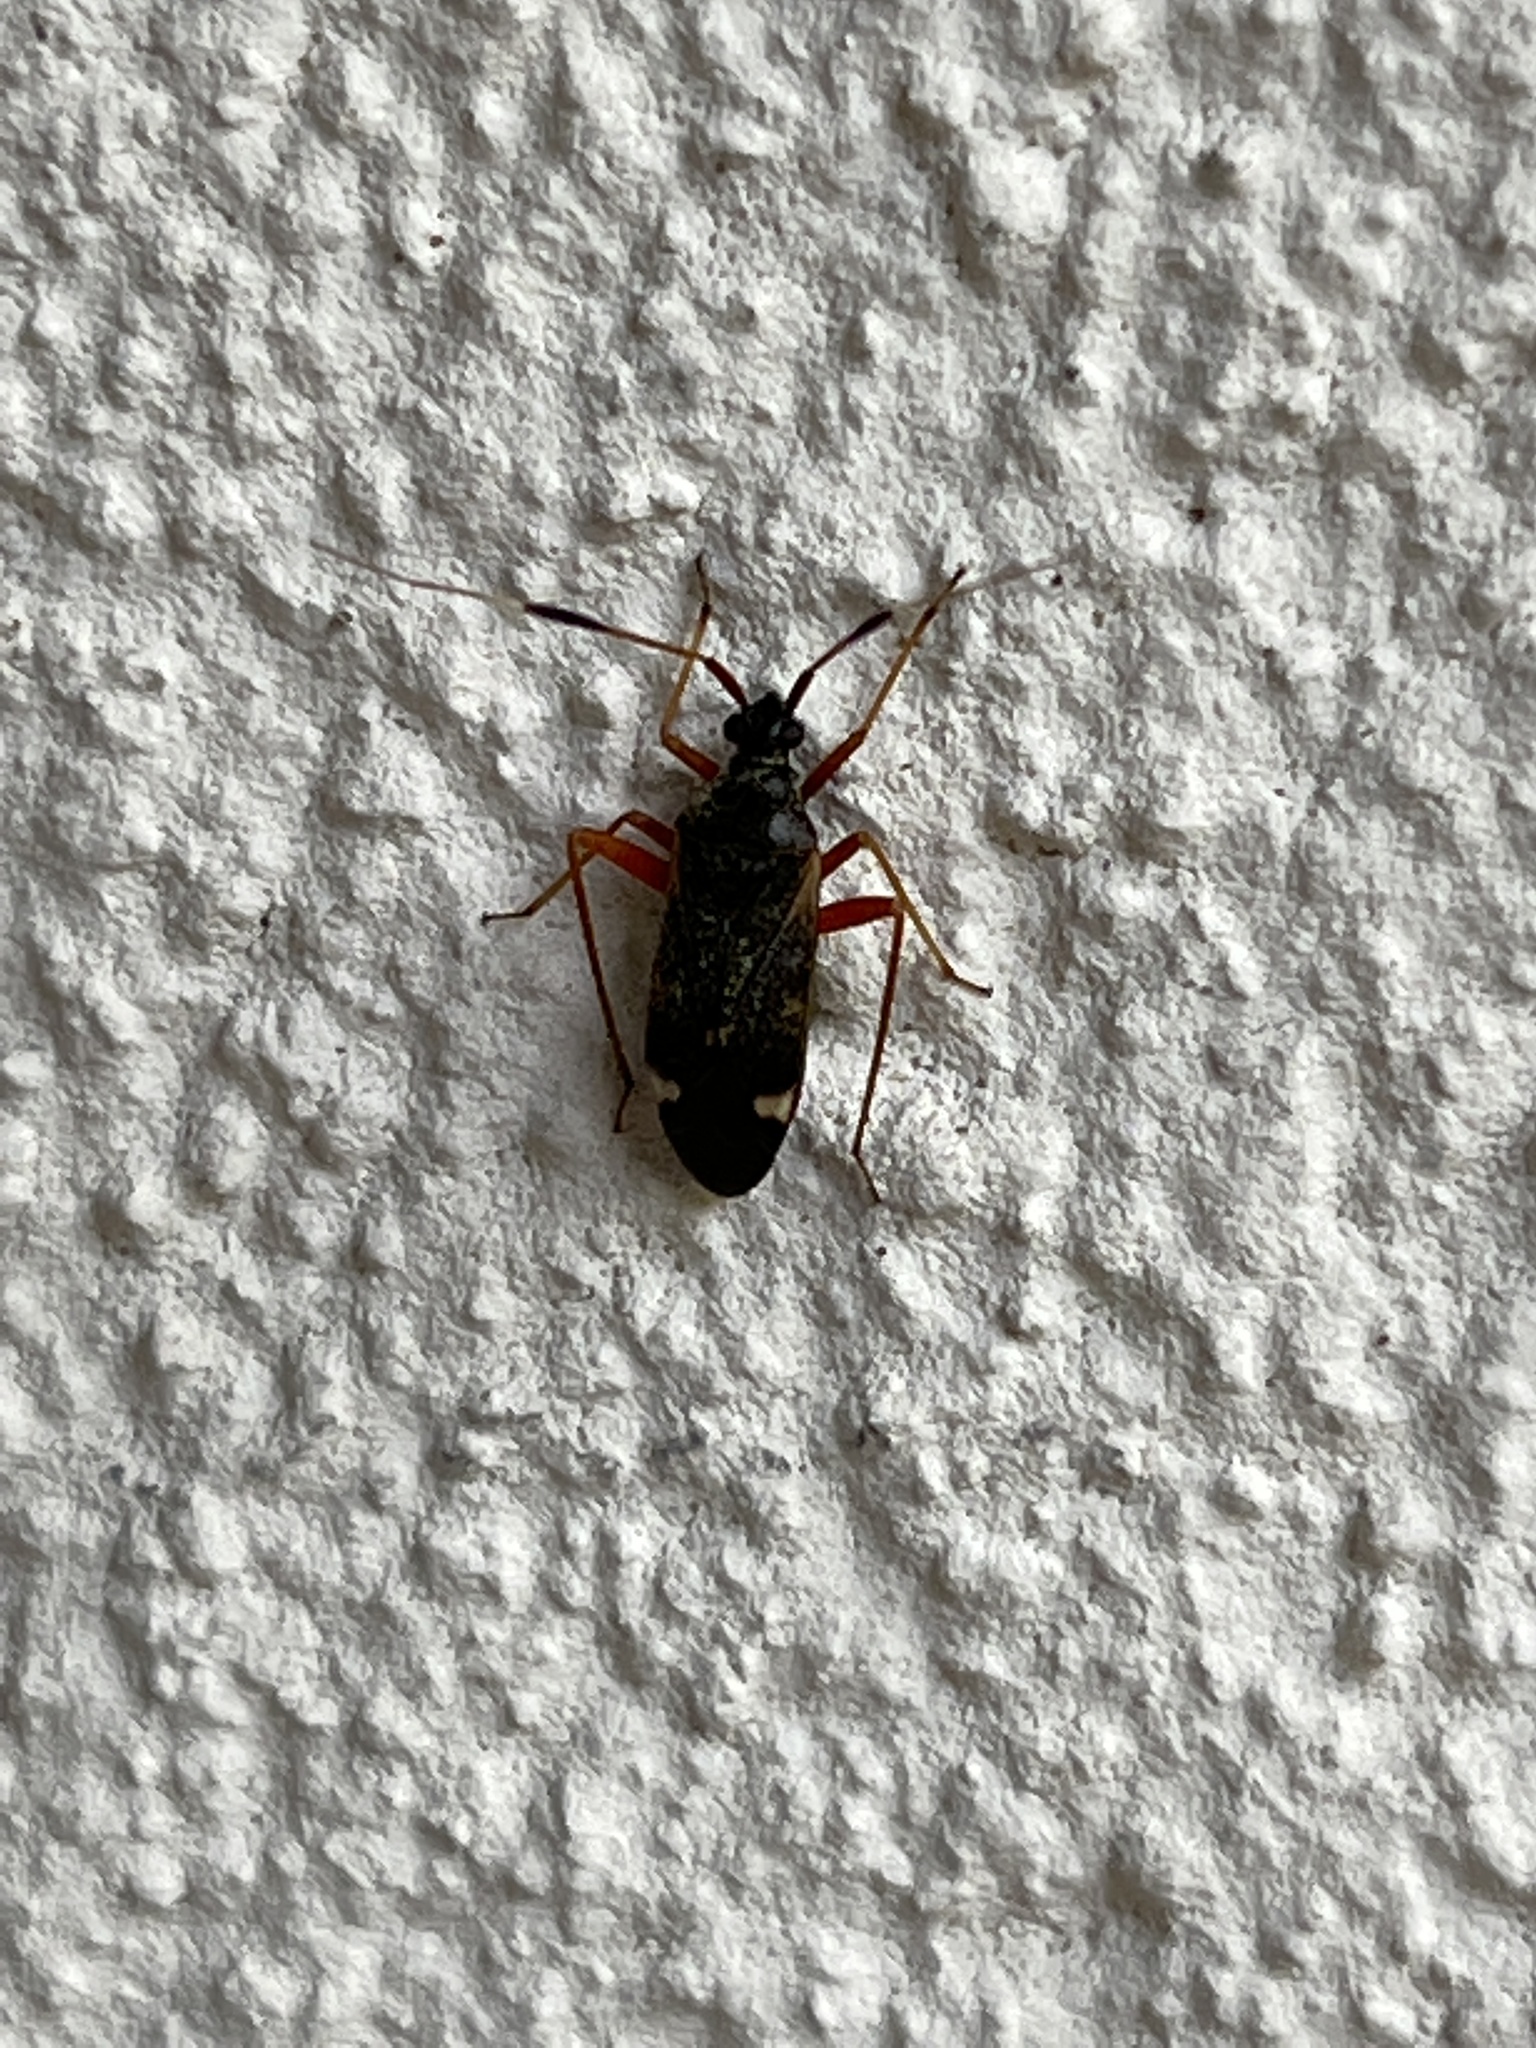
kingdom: Animalia
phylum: Arthropoda
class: Insecta
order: Hemiptera
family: Miridae
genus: Closterotomus
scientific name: Closterotomus biclavatus
